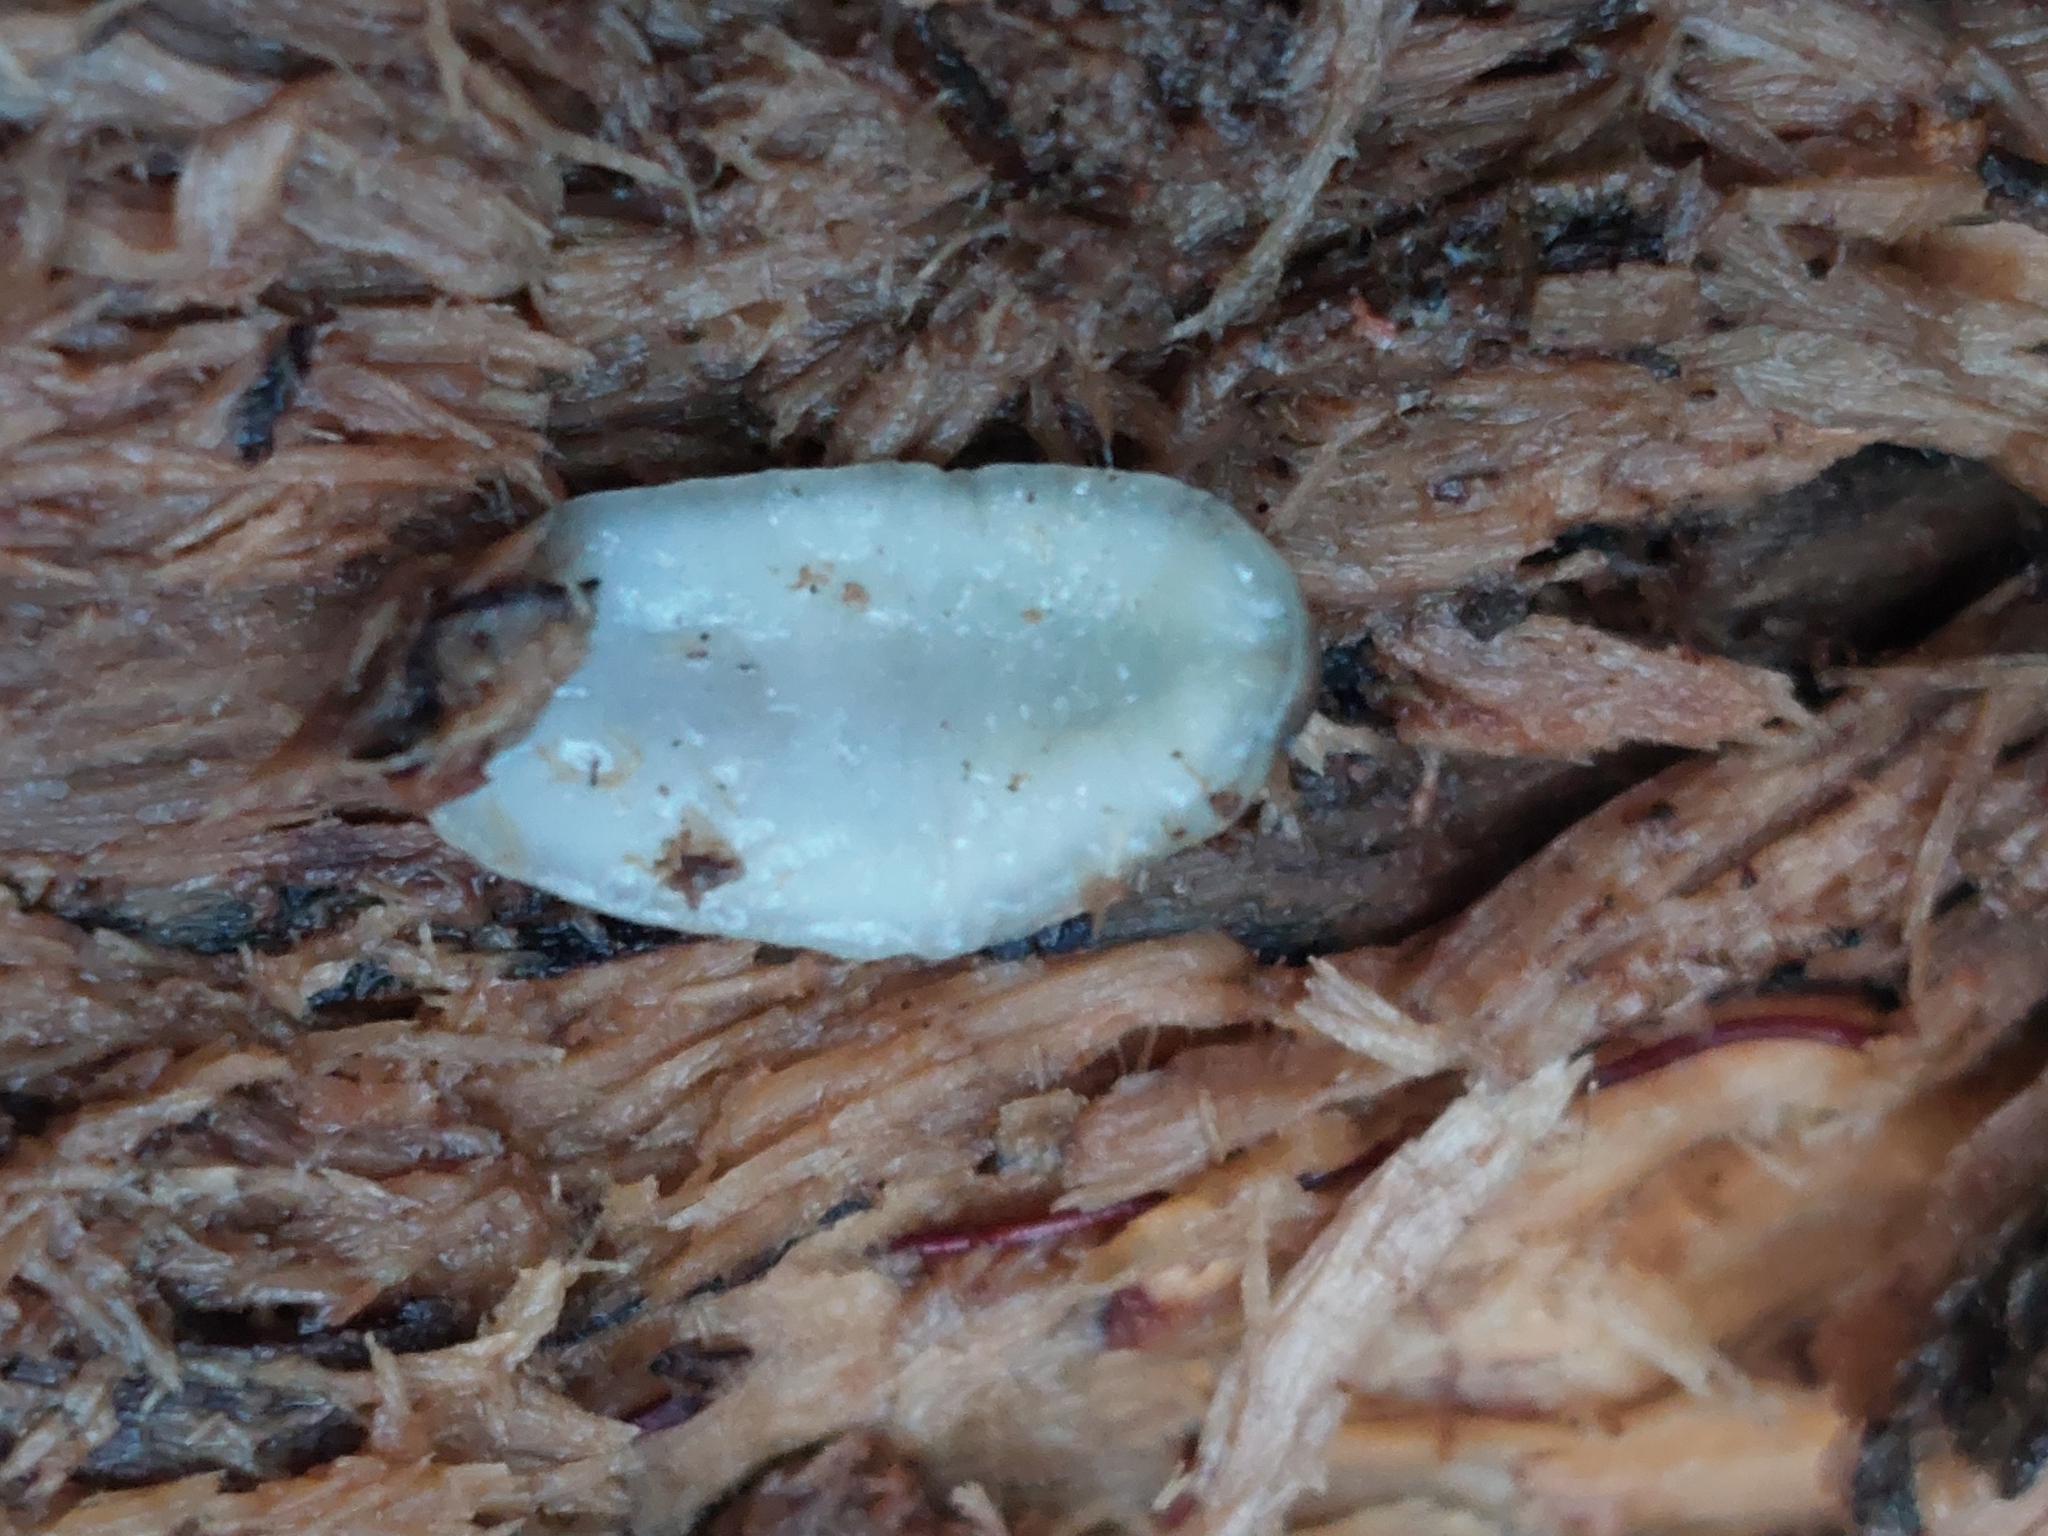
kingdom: Animalia
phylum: Mollusca
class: Gastropoda
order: Stylommatophora
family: Arionidae
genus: Arion
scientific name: Arion fasciatus
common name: Orange-banded arion
